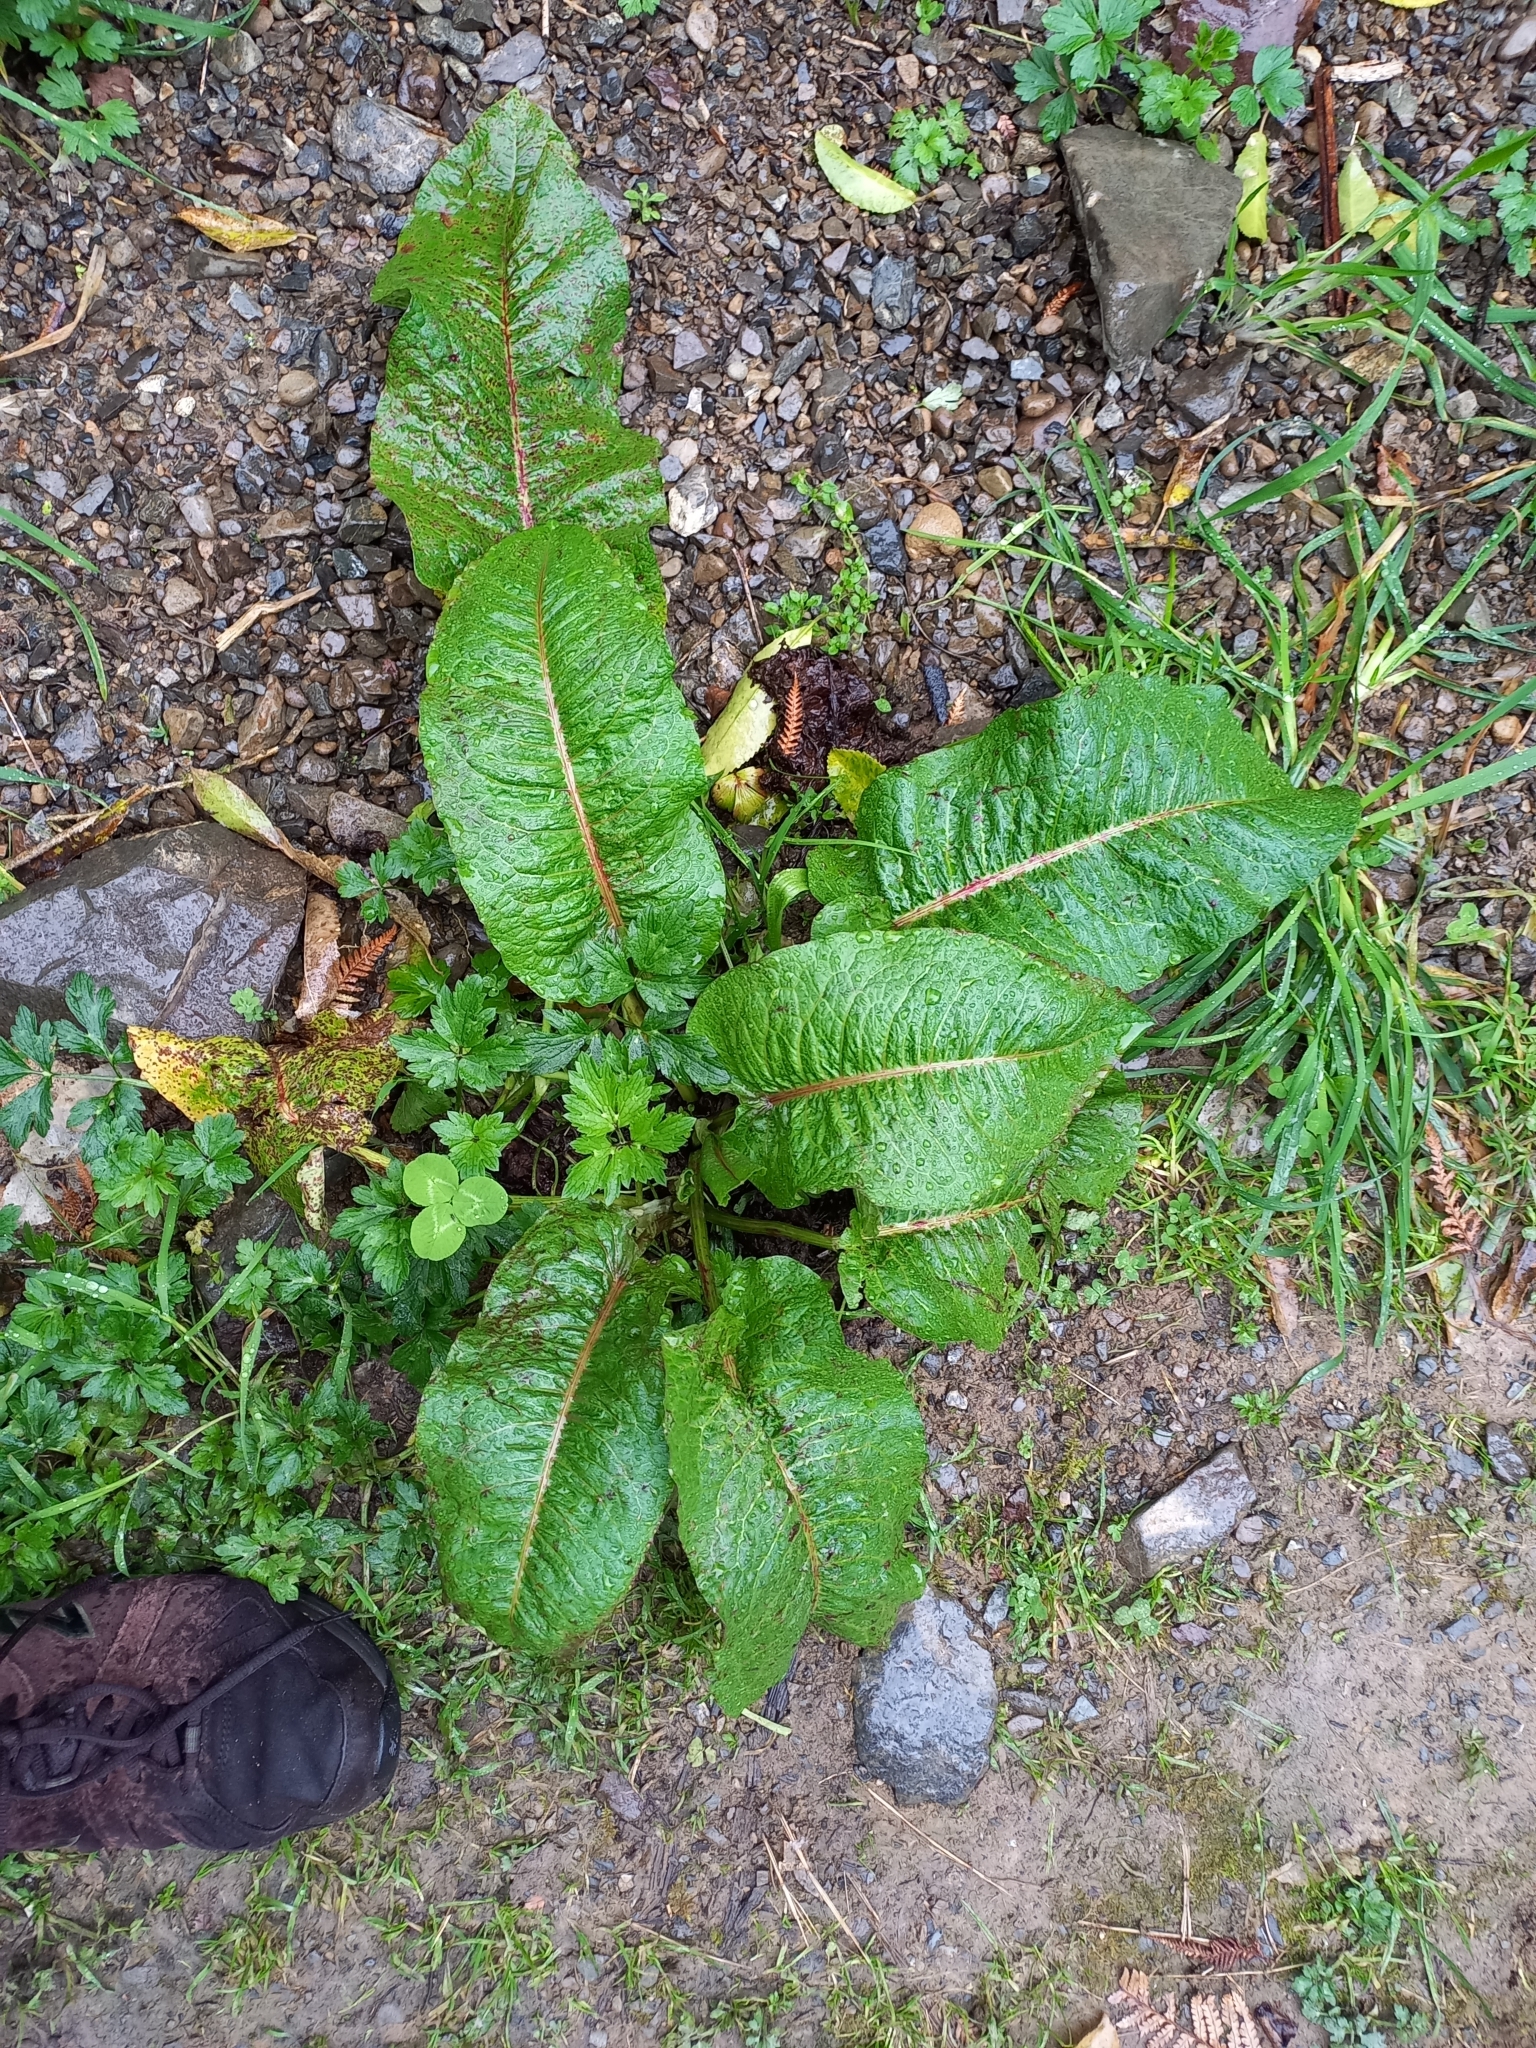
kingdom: Plantae
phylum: Tracheophyta
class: Magnoliopsida
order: Caryophyllales
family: Polygonaceae
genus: Rumex
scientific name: Rumex obtusifolius
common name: Bitter dock
